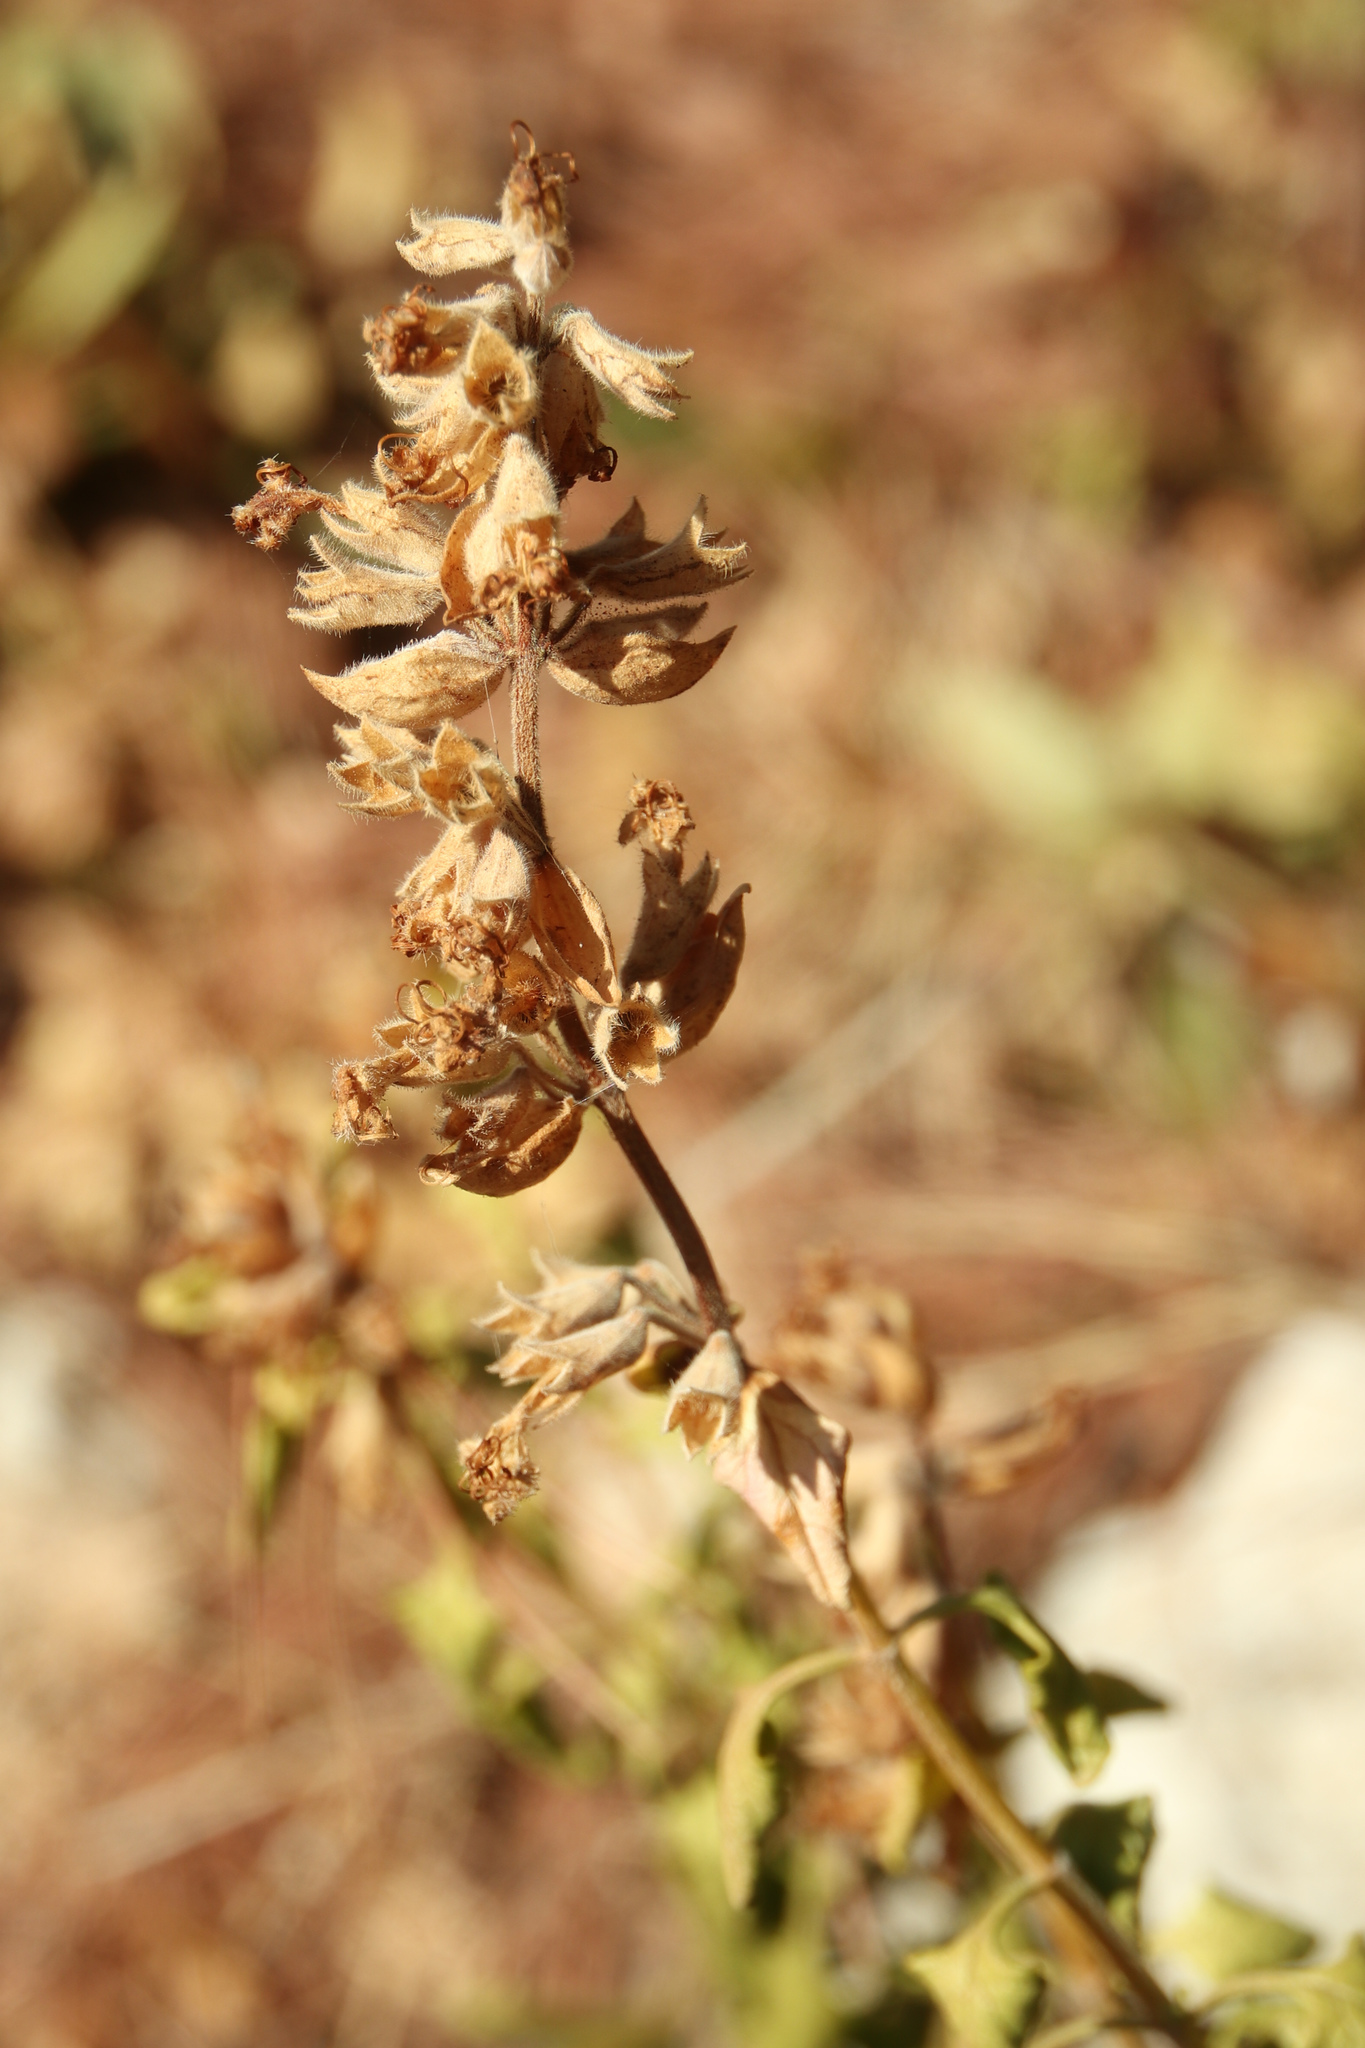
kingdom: Plantae
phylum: Tracheophyta
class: Magnoliopsida
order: Lamiales
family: Lamiaceae
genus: Teucrium
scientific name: Teucrium flavum
